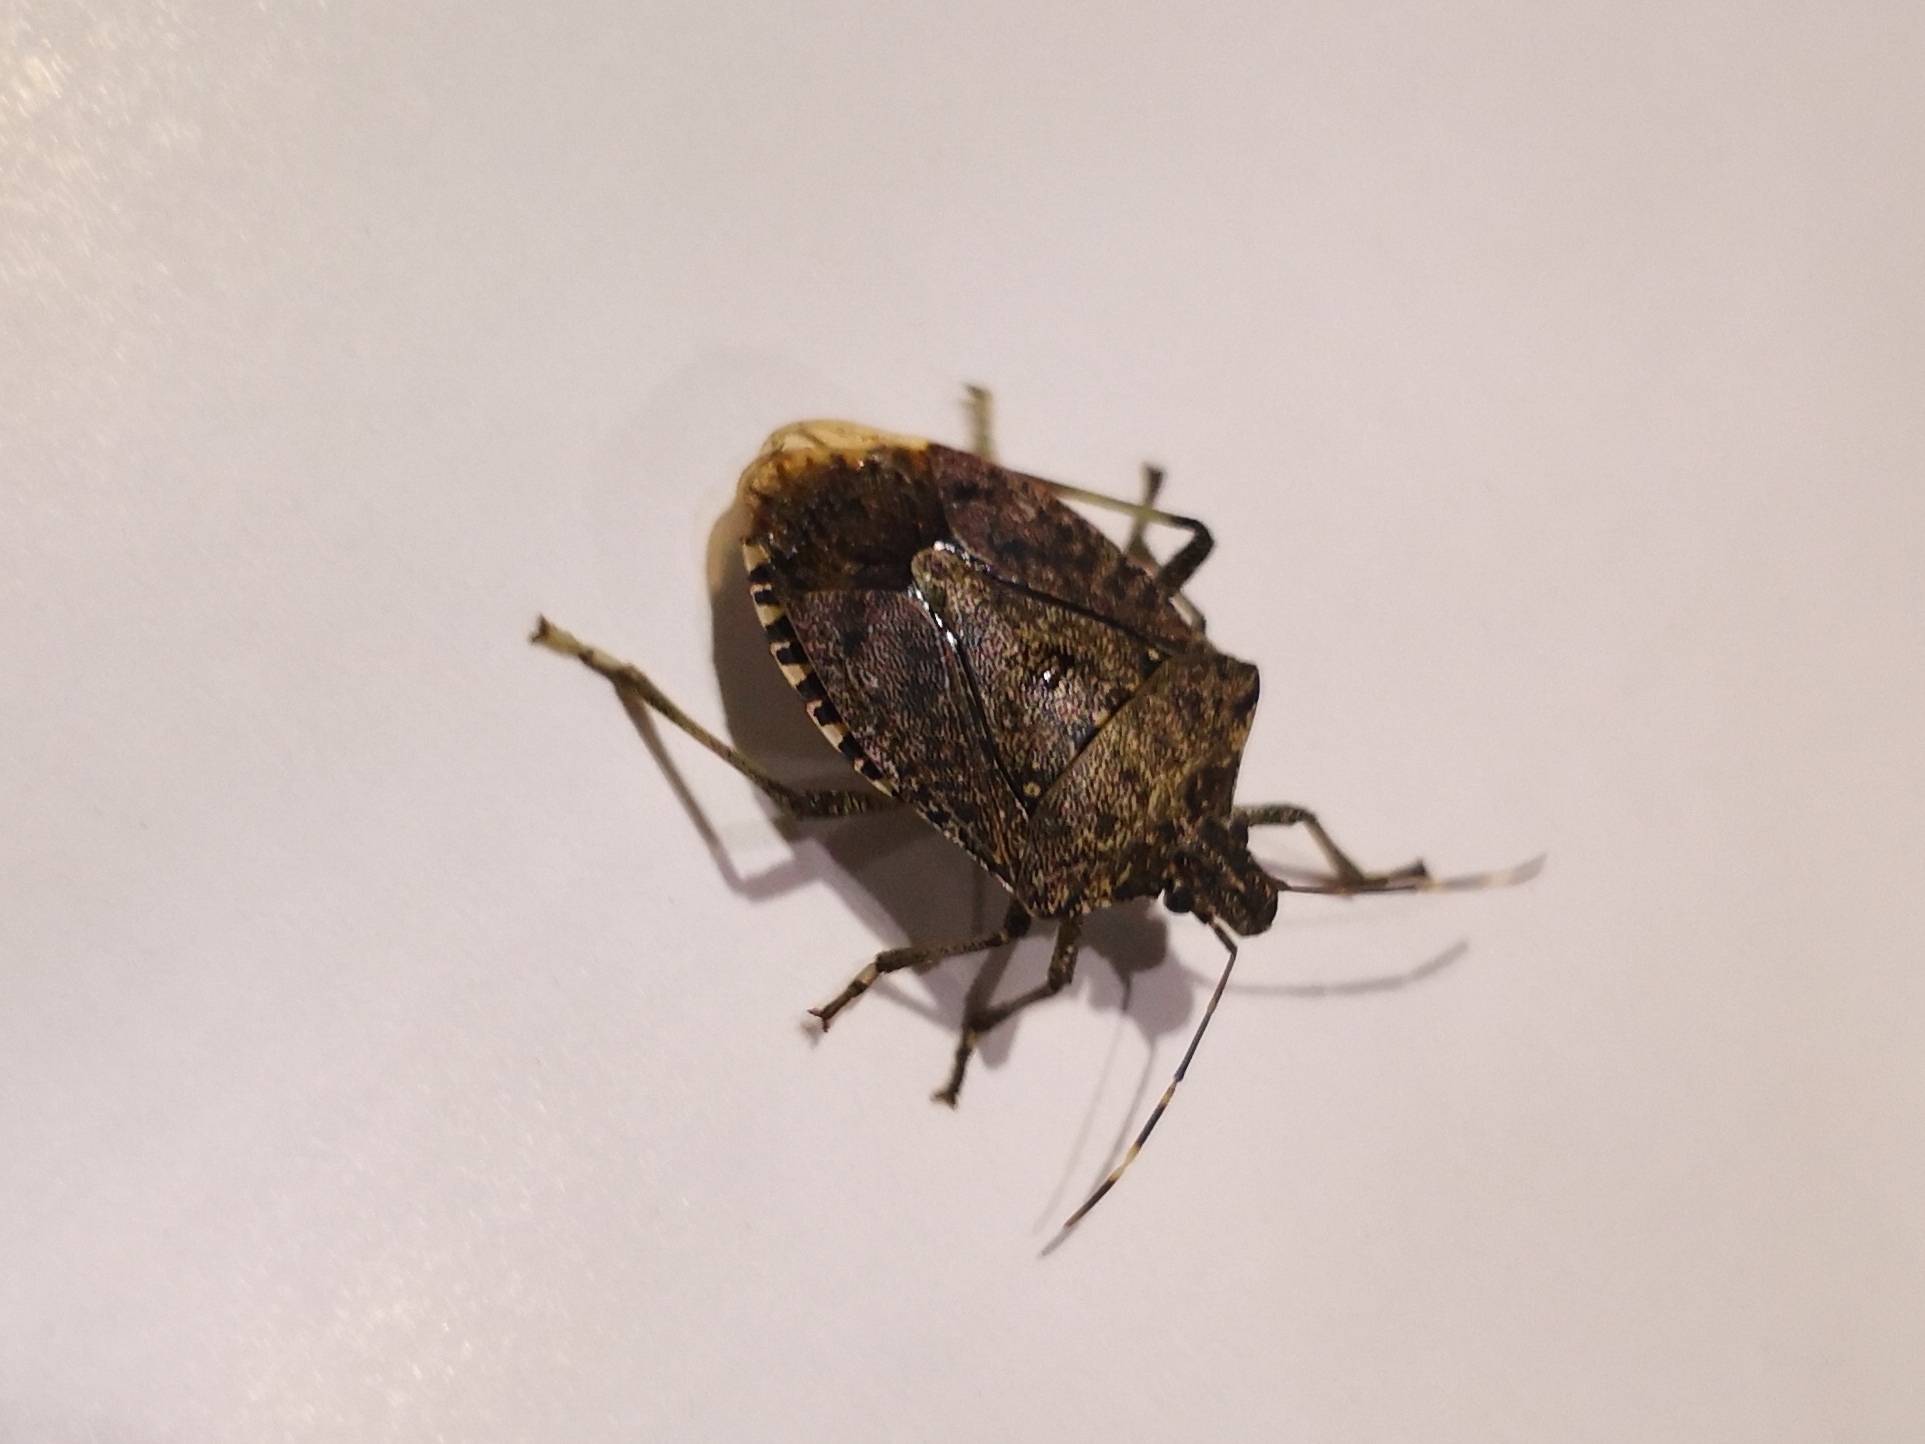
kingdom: Animalia
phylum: Arthropoda
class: Insecta
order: Hemiptera
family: Pentatomidae
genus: Halyomorpha
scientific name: Halyomorpha halys
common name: Brown marmorated stink bug
